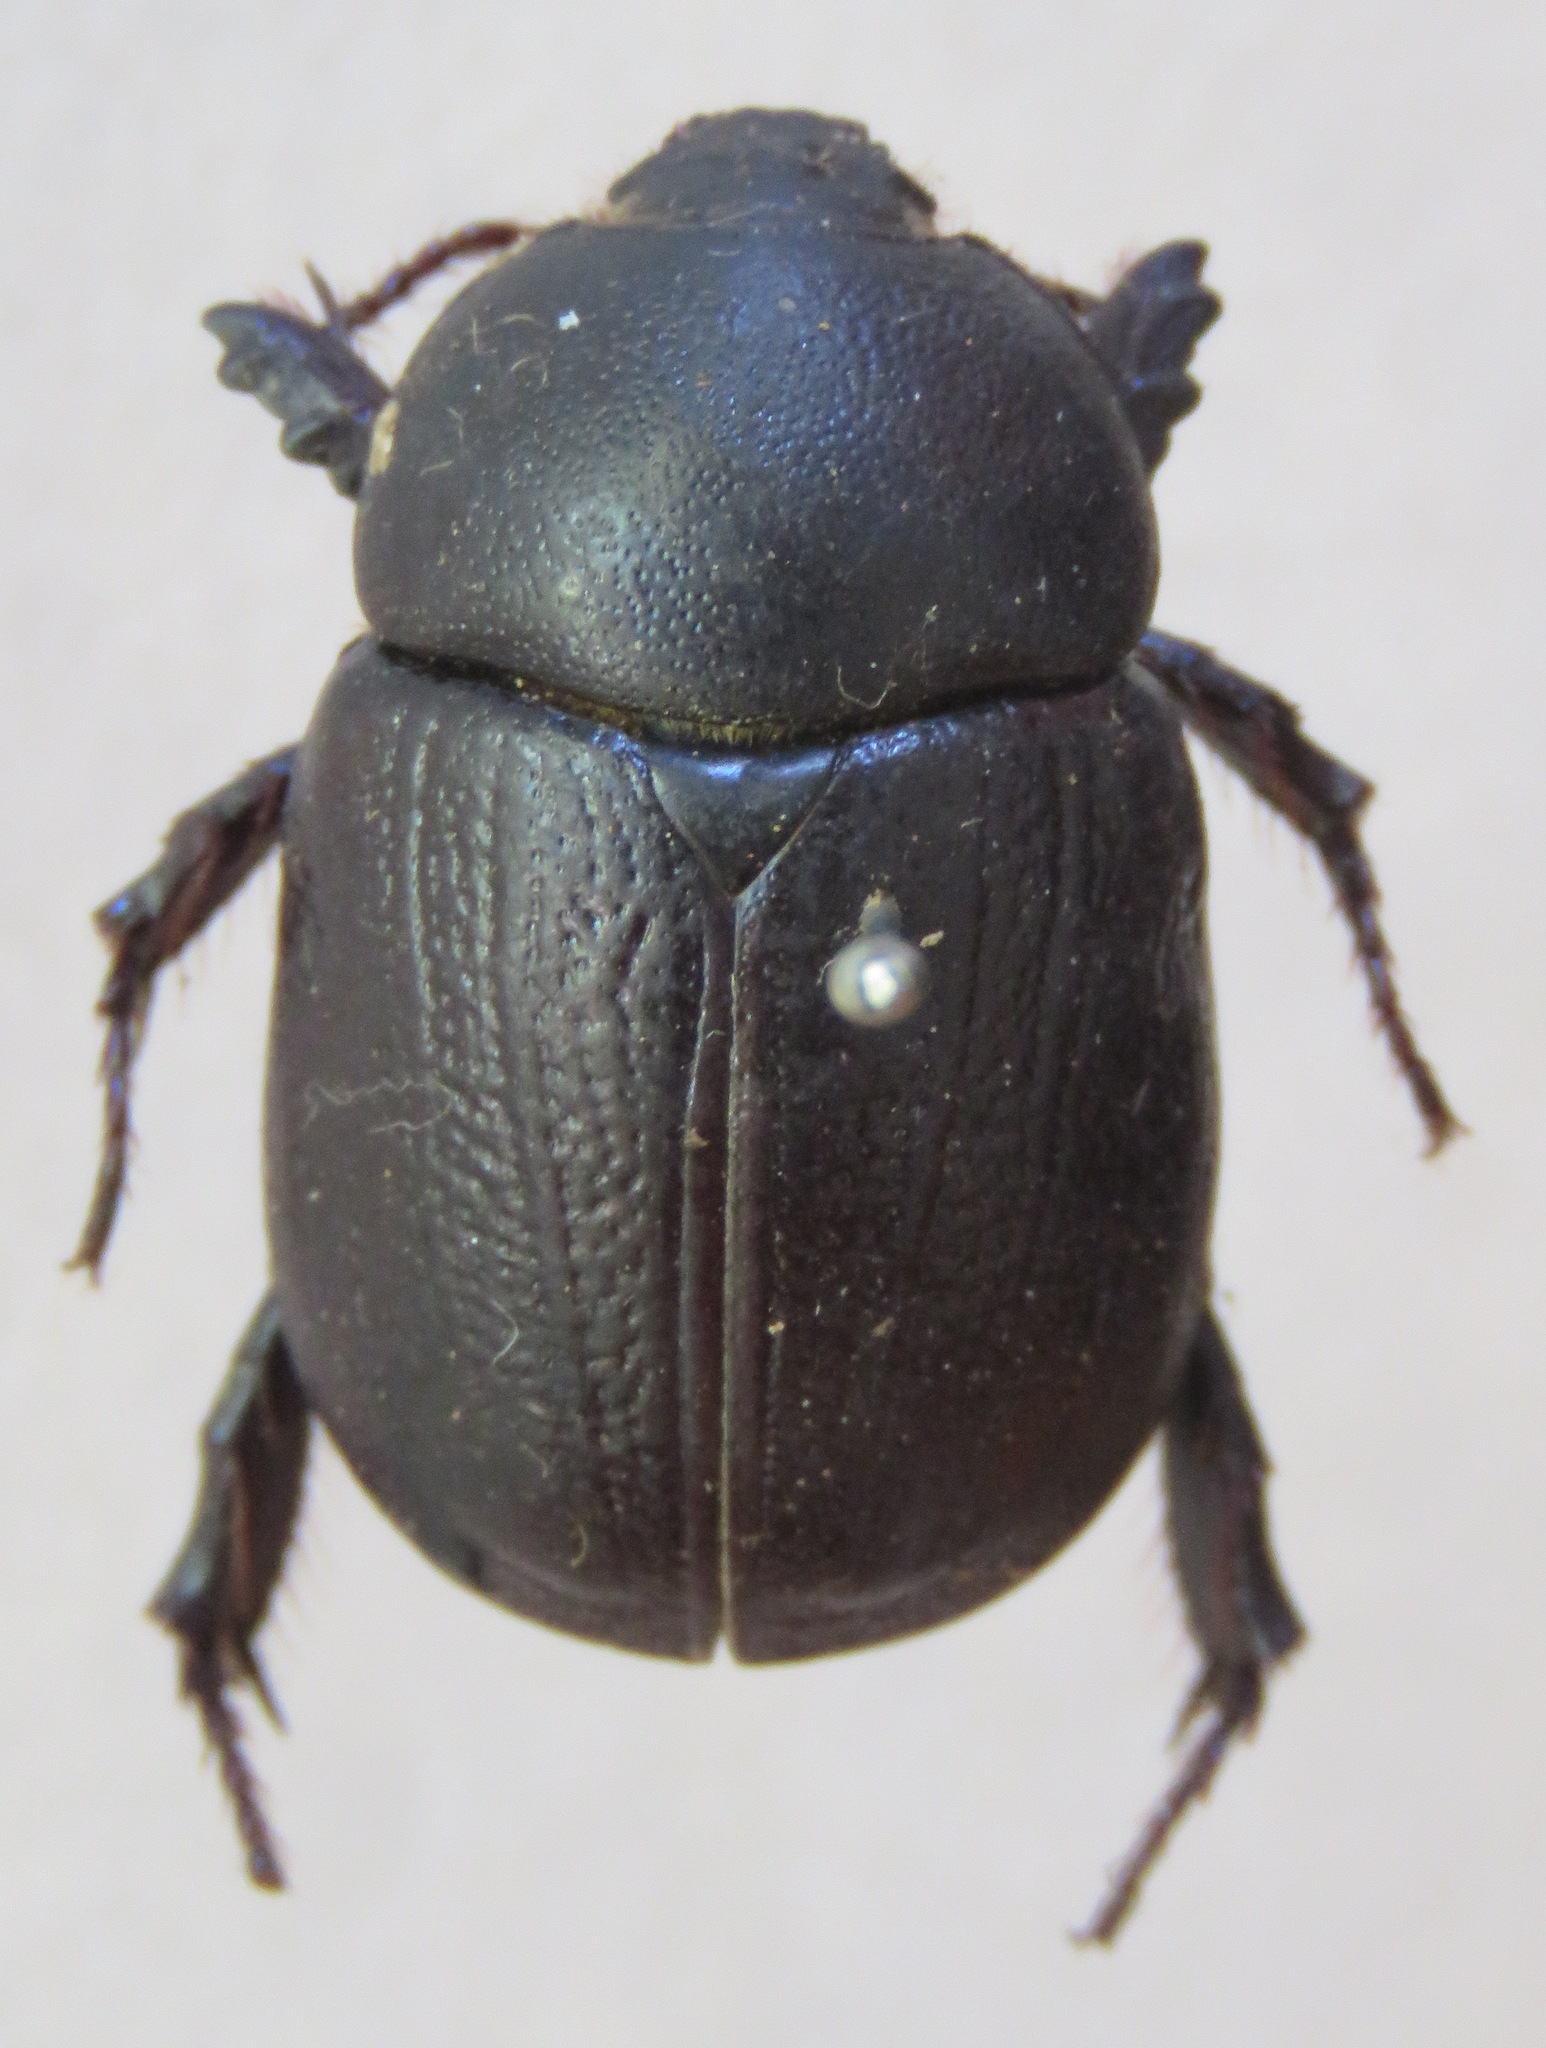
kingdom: Animalia
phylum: Arthropoda
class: Insecta
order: Coleoptera
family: Scarabaeidae
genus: Pentodon
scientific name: Pentodon bidens
